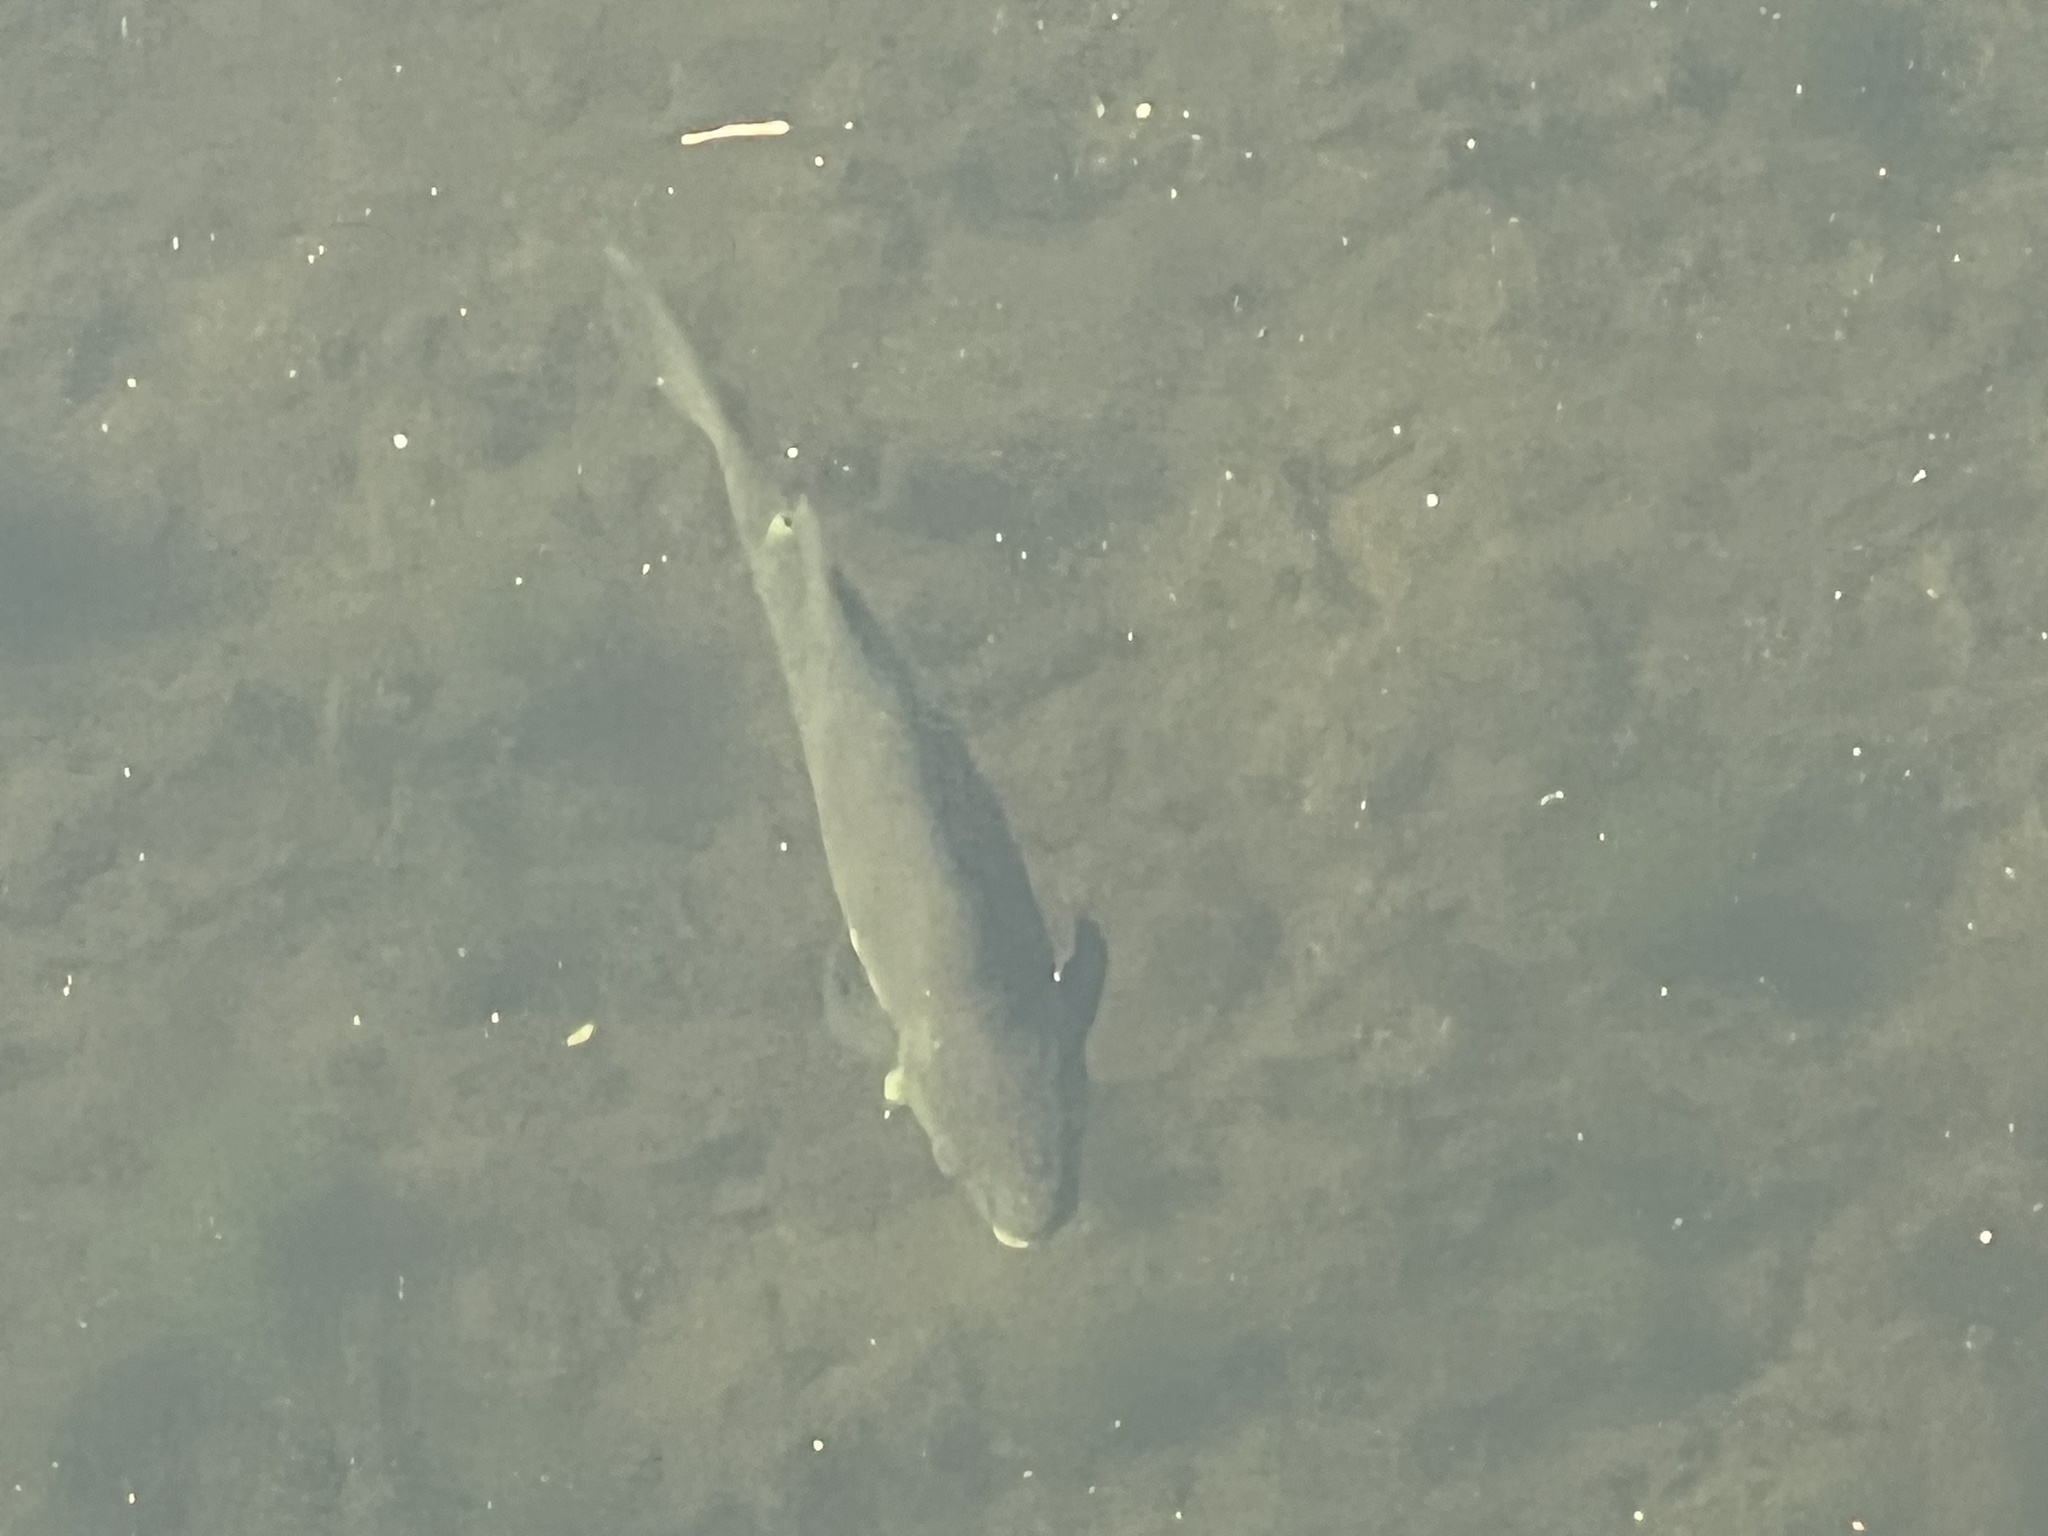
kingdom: Animalia
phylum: Chordata
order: Cypriniformes
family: Cyprinidae
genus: Cyprinus
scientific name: Cyprinus carpio
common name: Common carp
